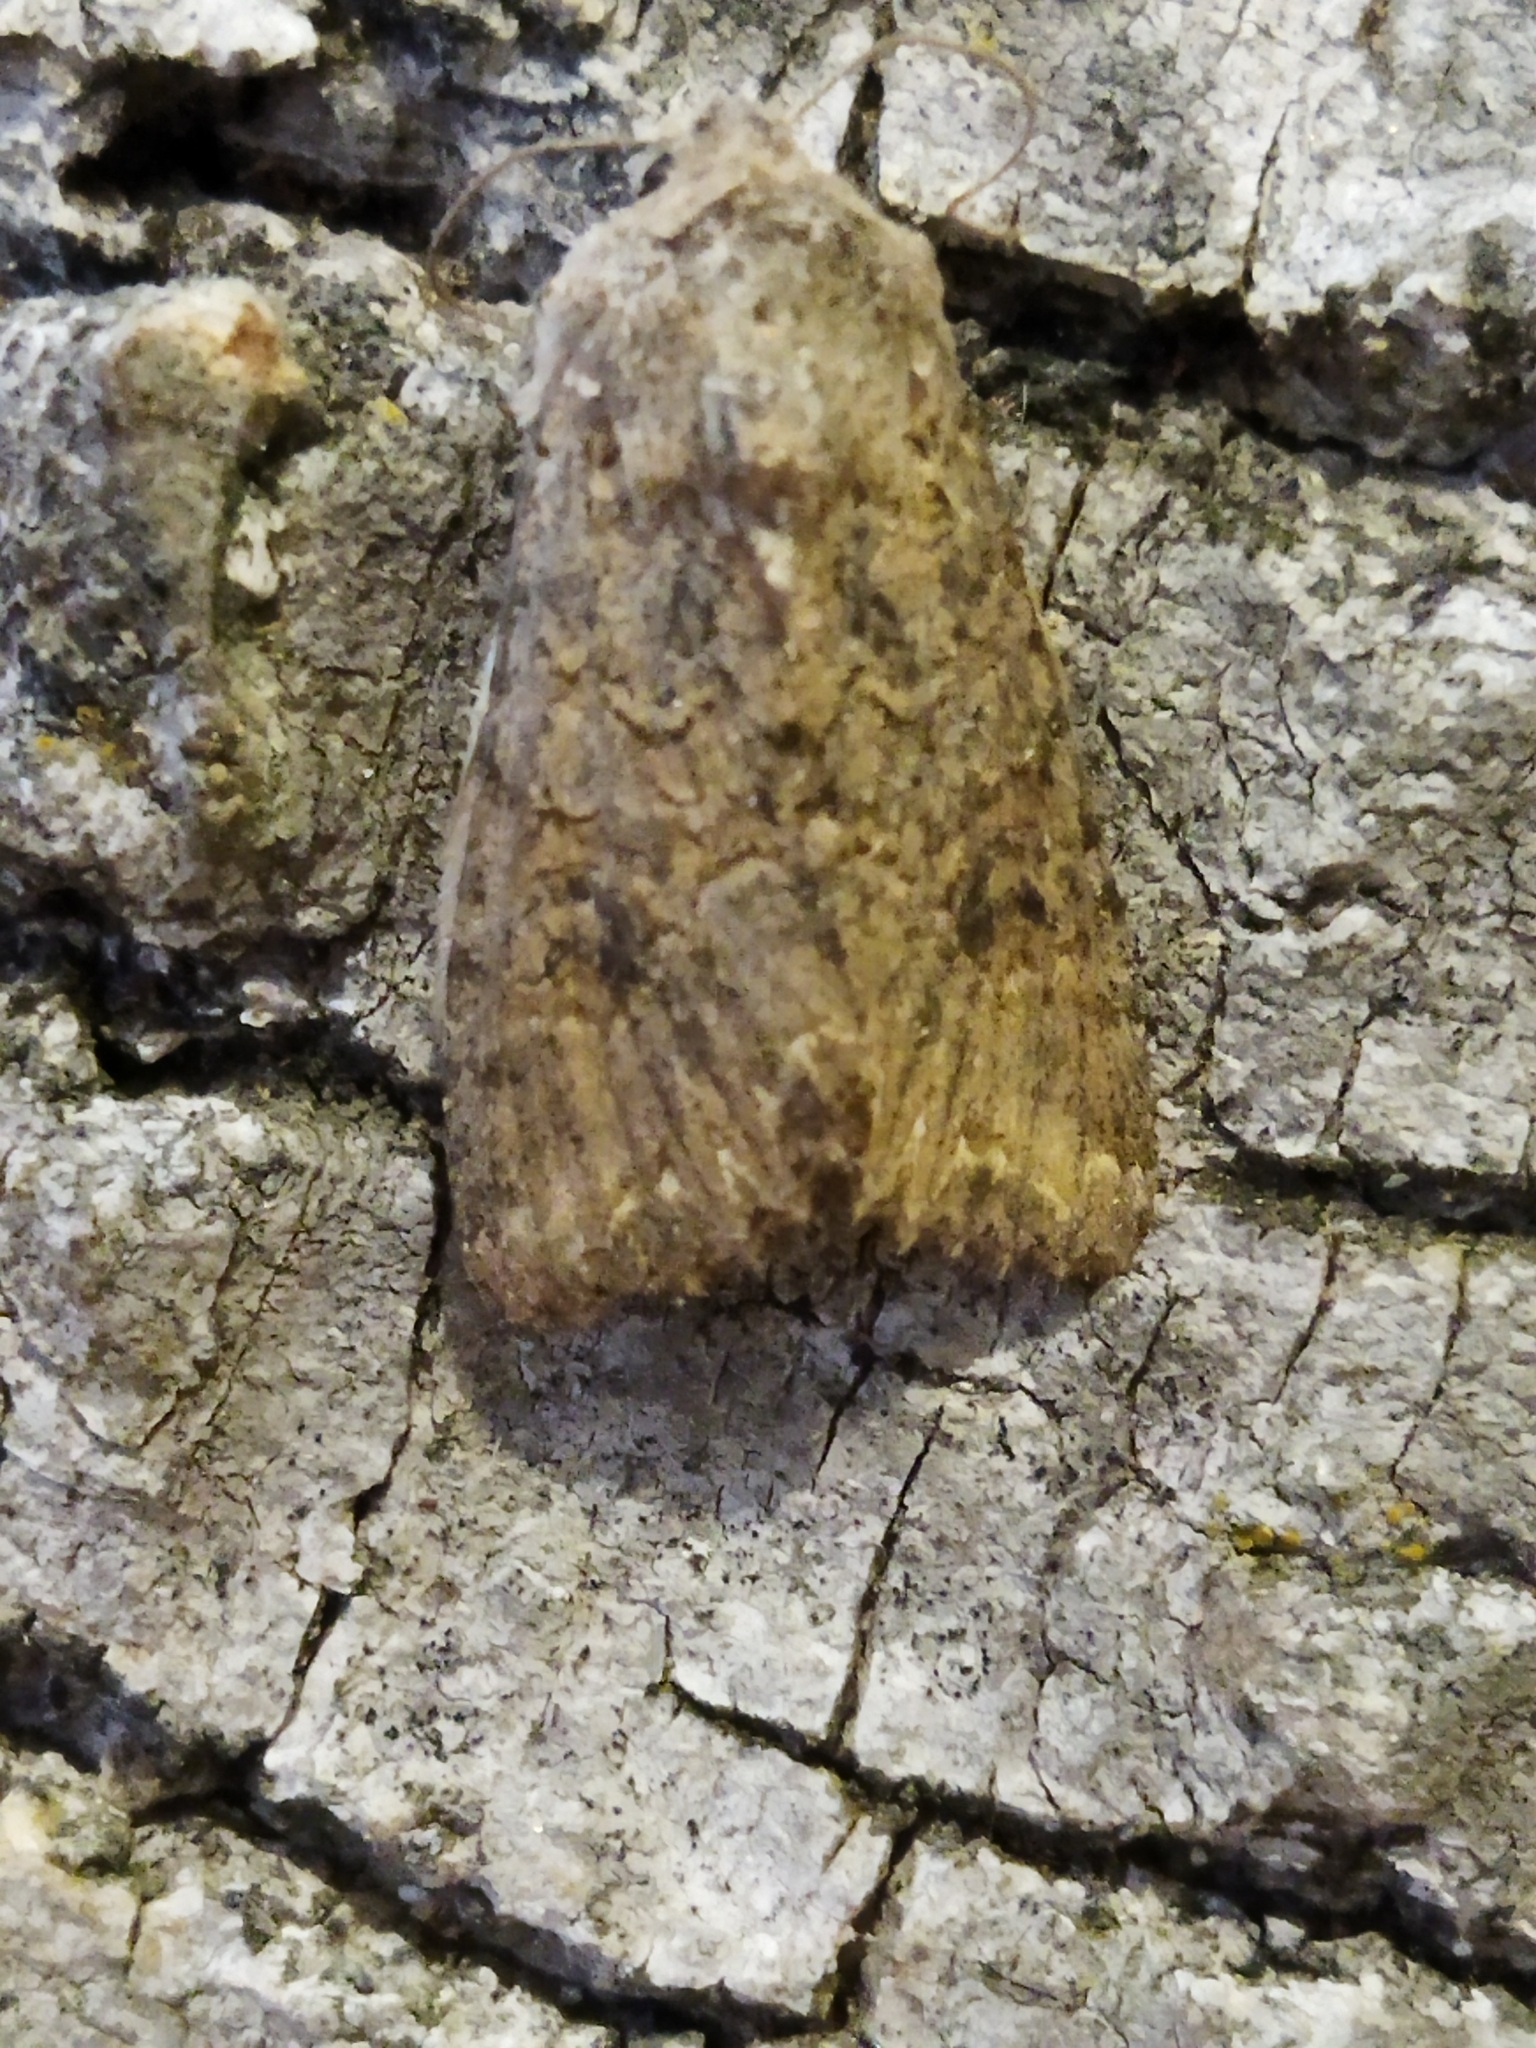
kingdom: Animalia
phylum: Arthropoda
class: Insecta
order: Lepidoptera
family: Noctuidae
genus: Anarta
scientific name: Anarta trifolii
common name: Clover cutworm moth
